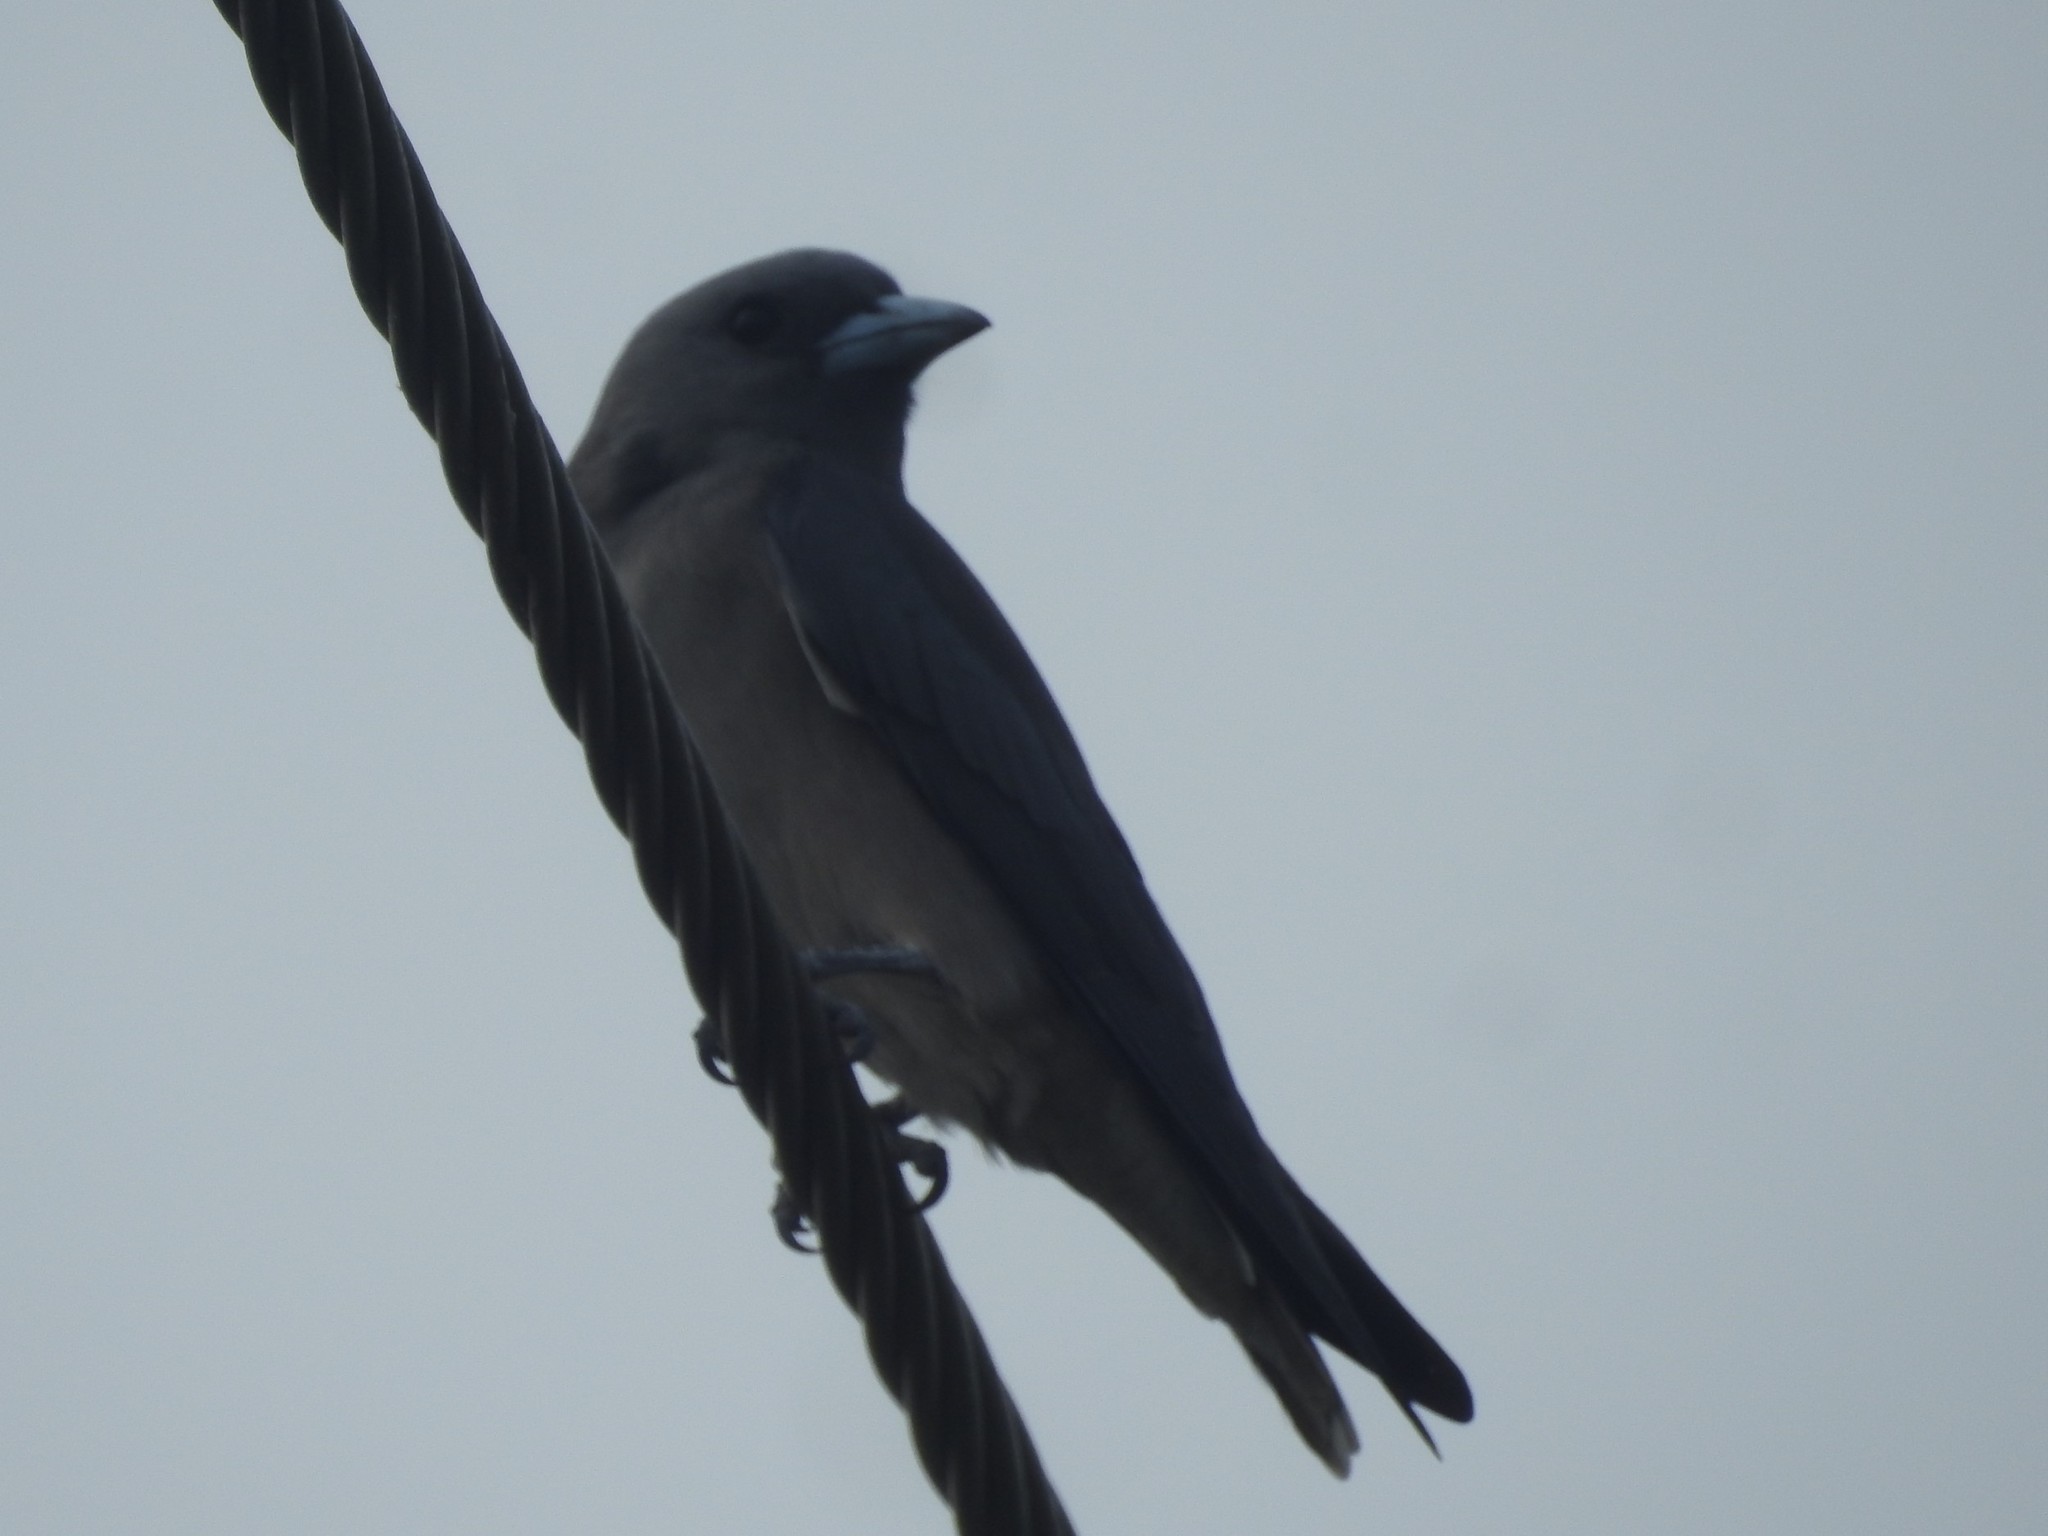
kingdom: Animalia
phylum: Chordata
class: Aves
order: Passeriformes
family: Artamidae
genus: Artamus
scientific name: Artamus fuscus
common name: Ashy woodswallow
